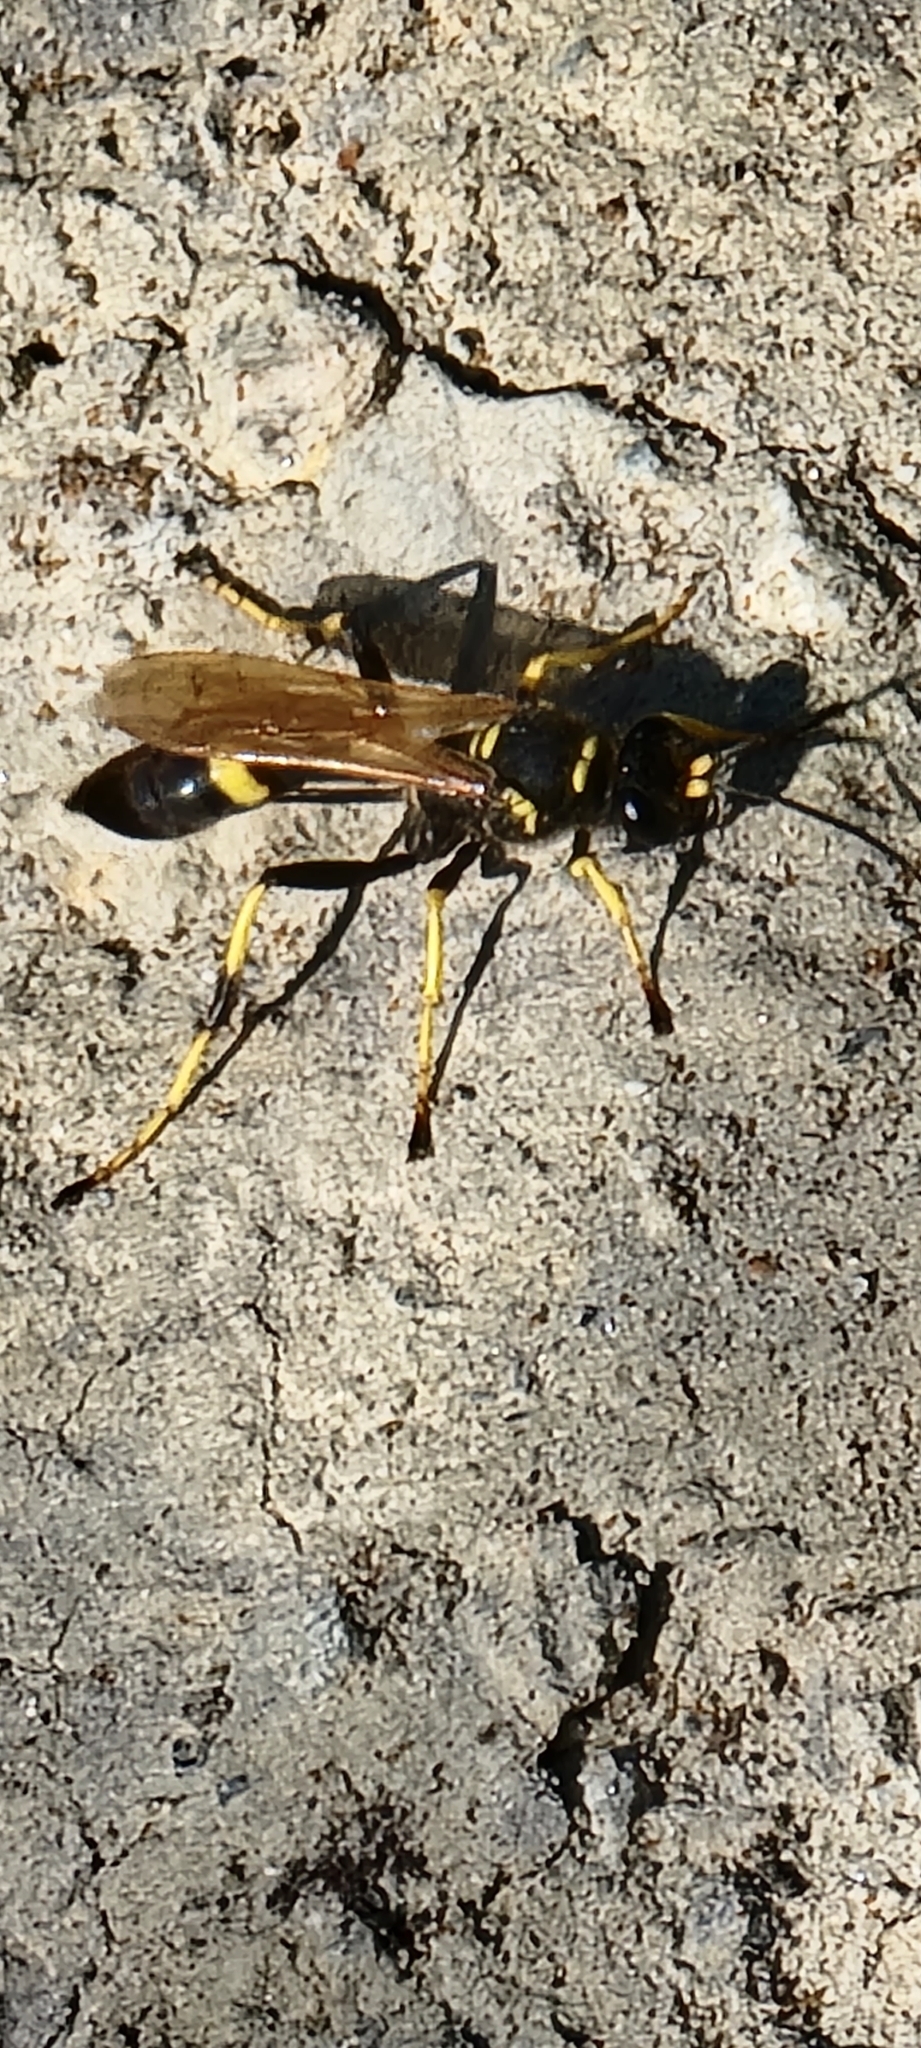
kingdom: Animalia
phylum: Arthropoda
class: Insecta
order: Hymenoptera
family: Sphecidae
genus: Sceliphron
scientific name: Sceliphron caementarium
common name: Mud dauber
